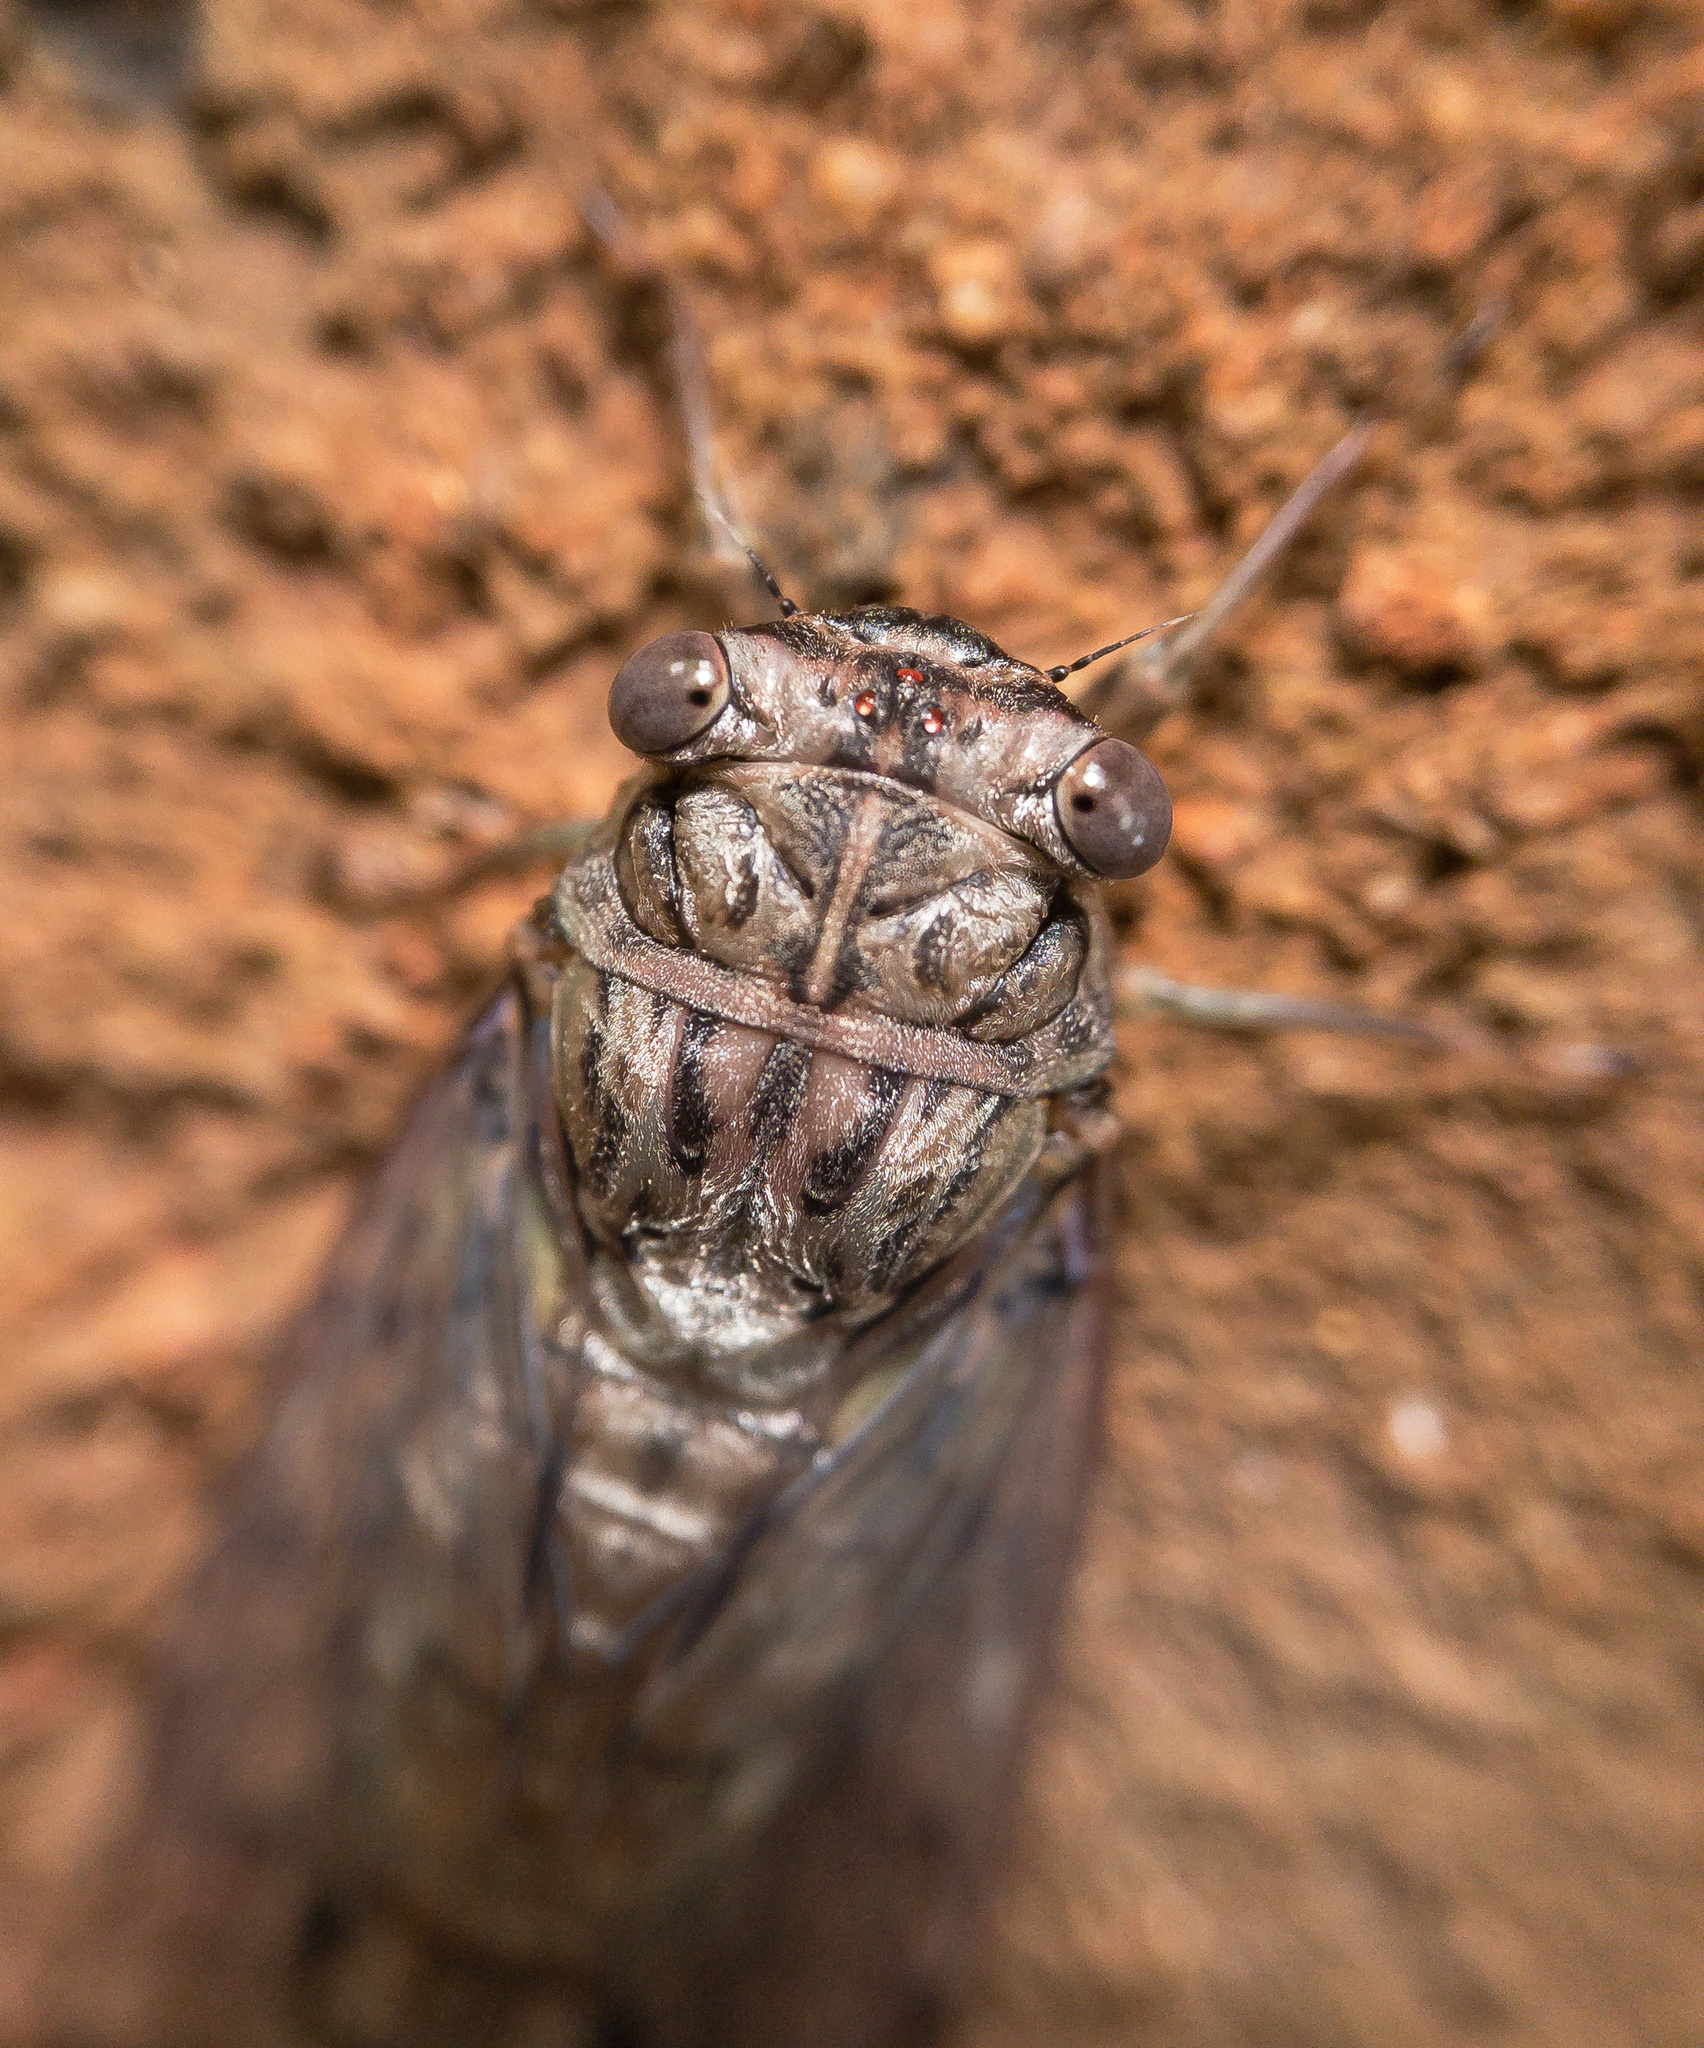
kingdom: Animalia
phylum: Arthropoda
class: Insecta
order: Hemiptera
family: Cicadidae
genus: Neocicada
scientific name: Neocicada hieroglyphica
